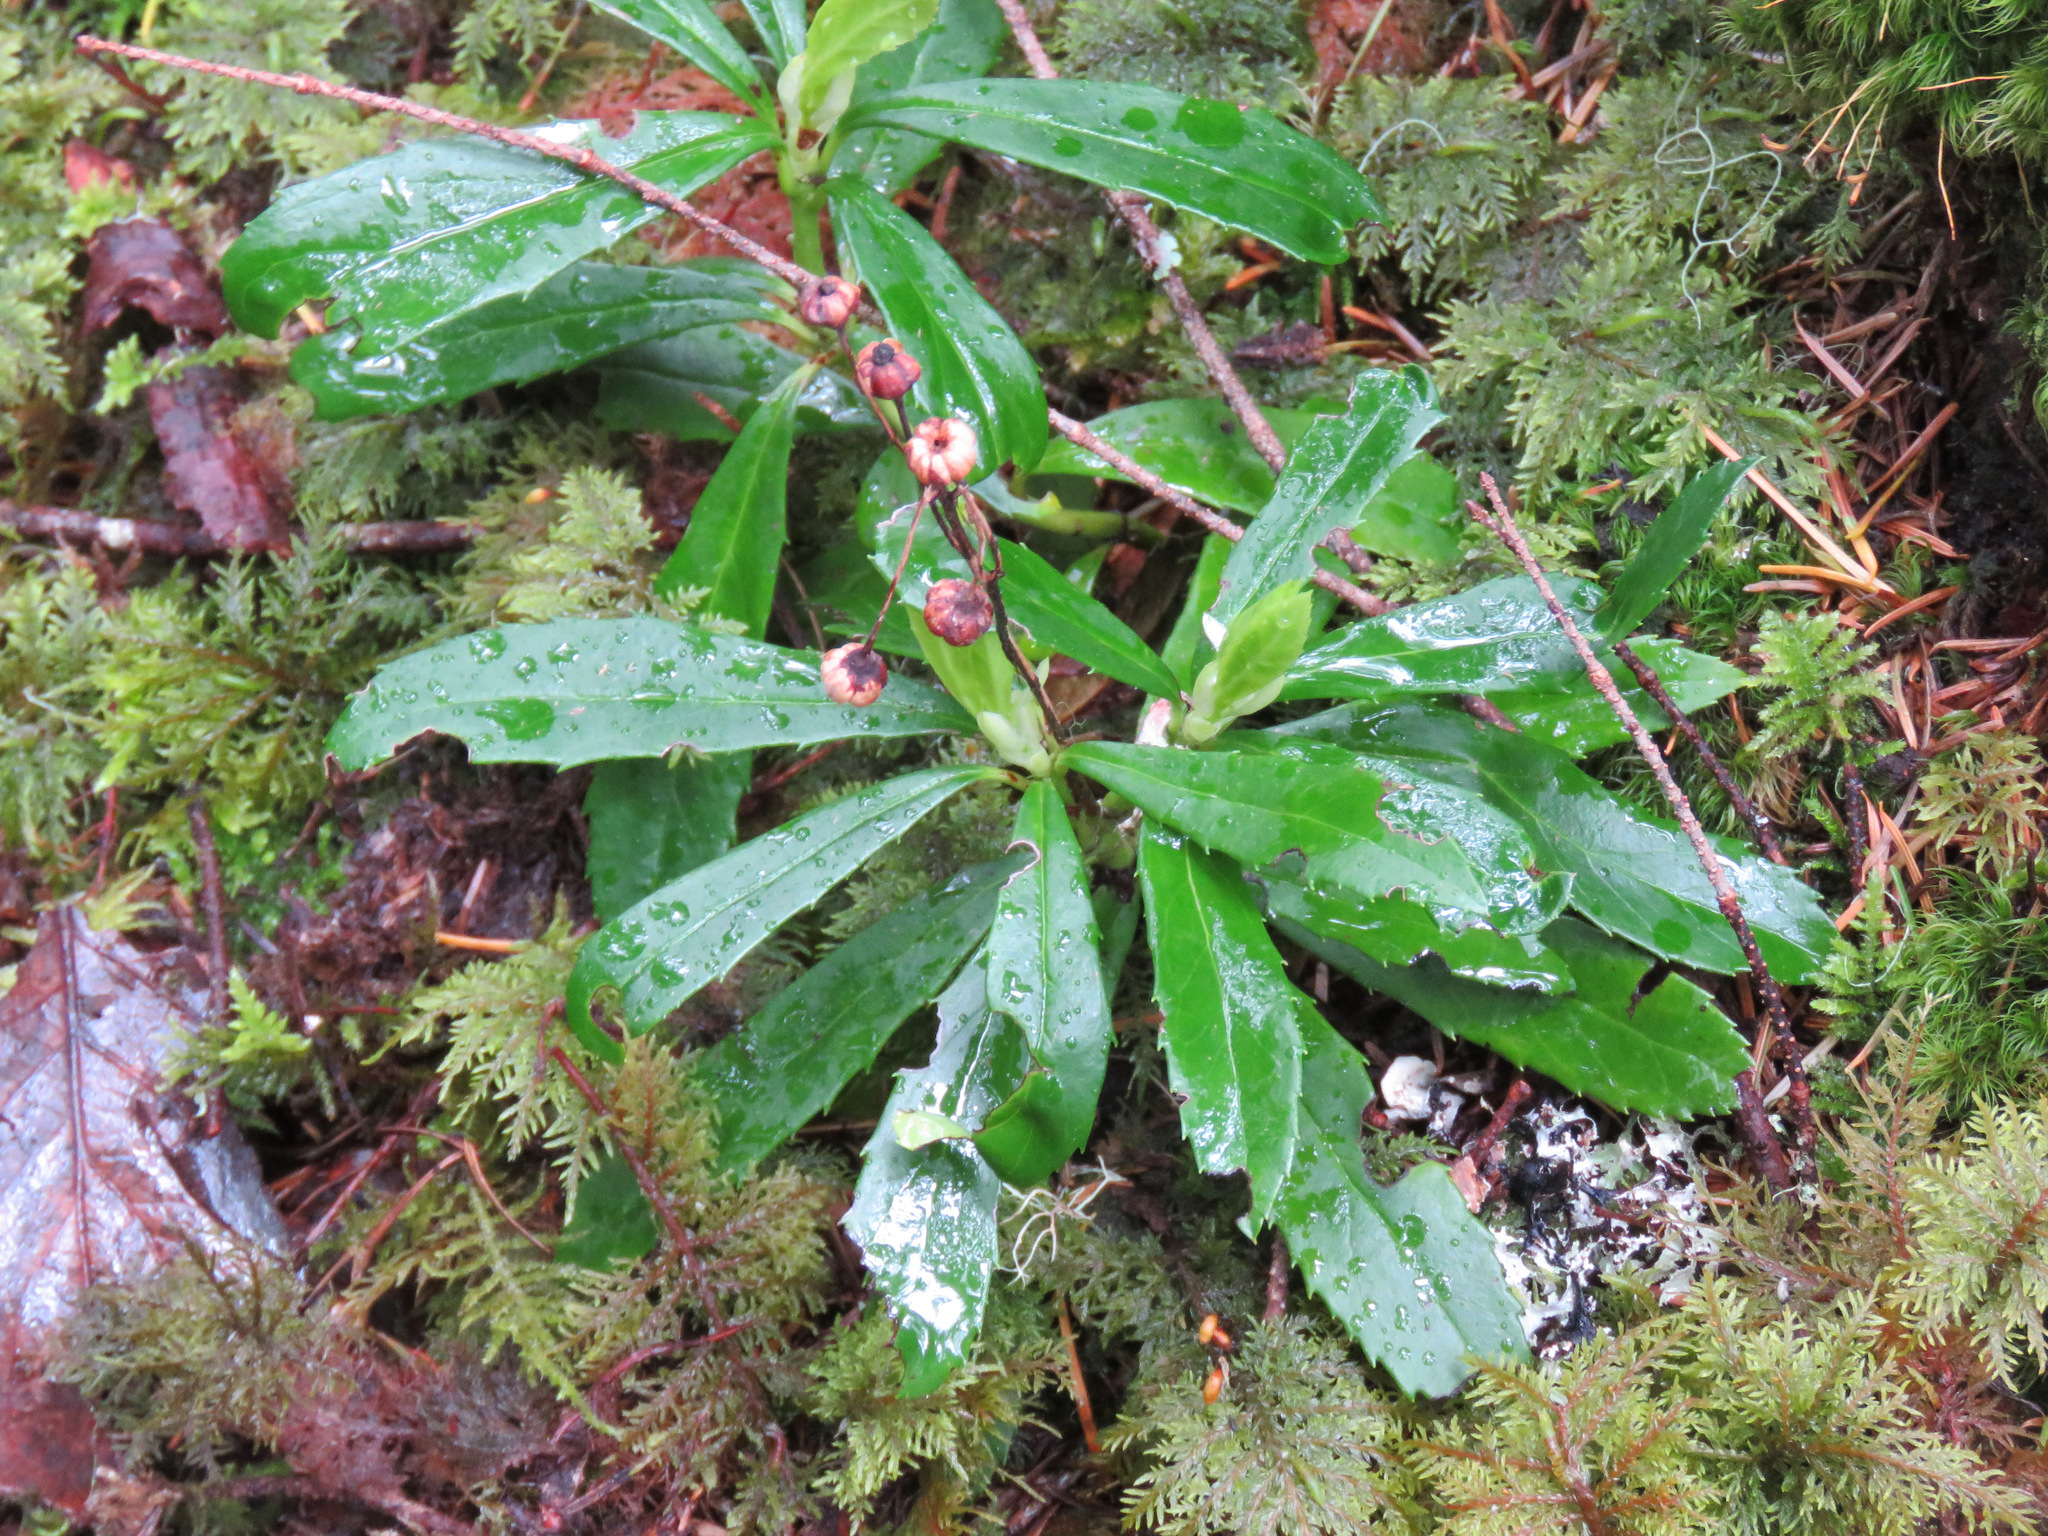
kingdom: Plantae
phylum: Tracheophyta
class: Magnoliopsida
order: Ericales
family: Ericaceae
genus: Chimaphila
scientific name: Chimaphila umbellata
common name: Pipsissewa
